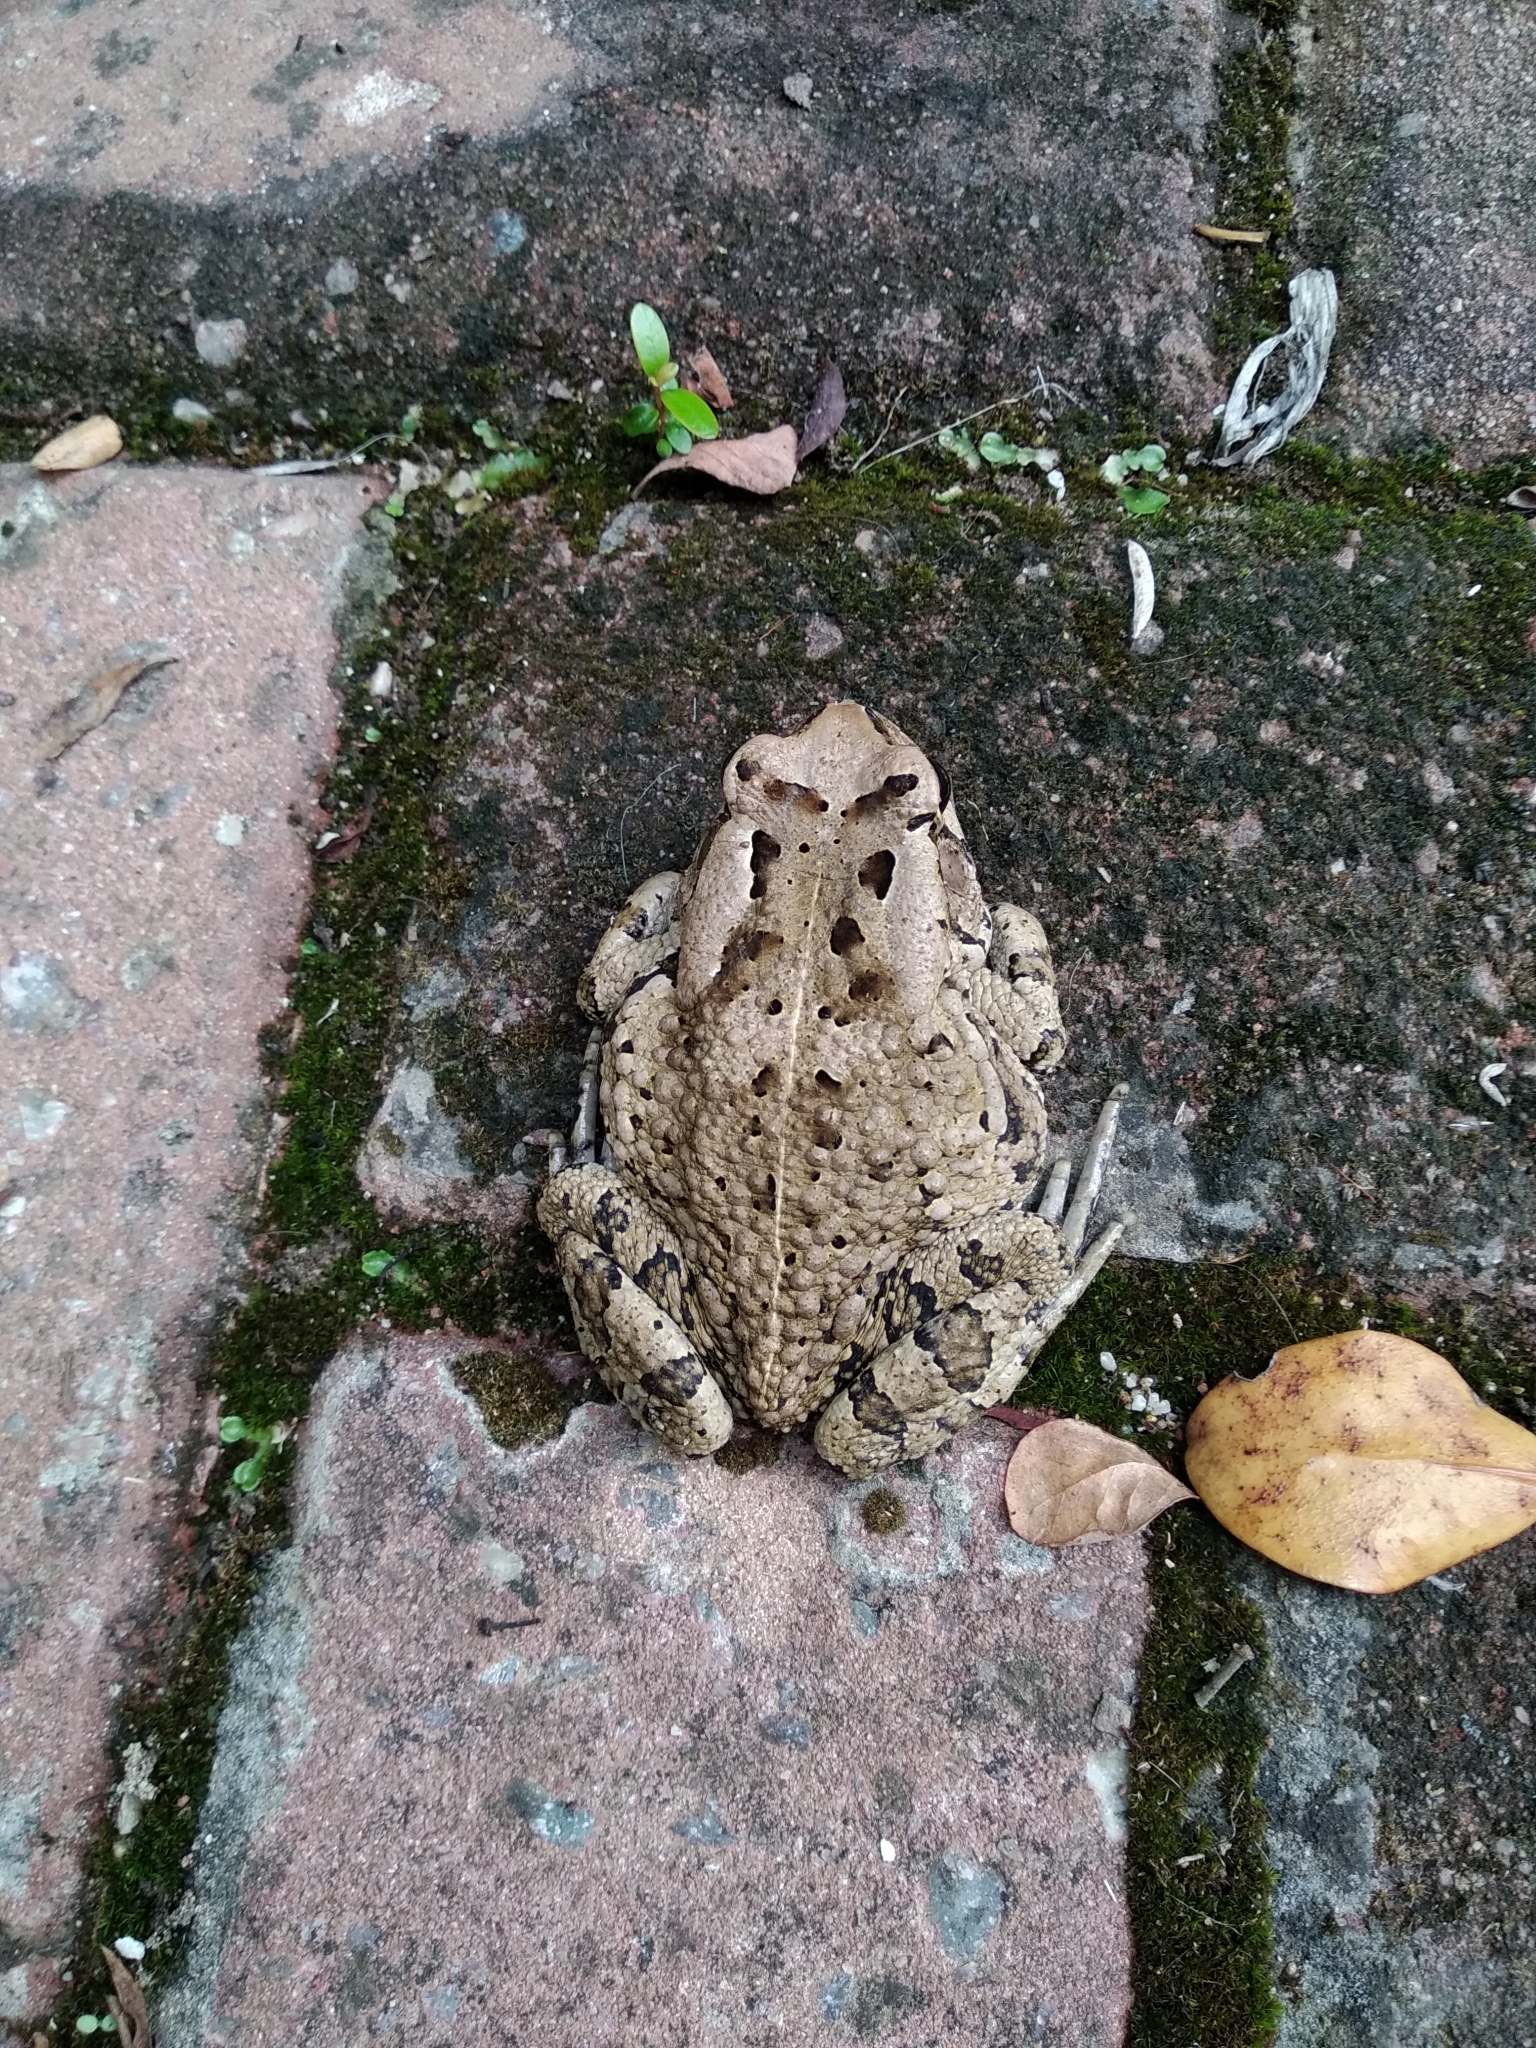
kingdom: Animalia
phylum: Chordata
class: Amphibia
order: Anura
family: Bufonidae
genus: Sclerophrys
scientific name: Sclerophrys capensis
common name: Ranger’s toad
